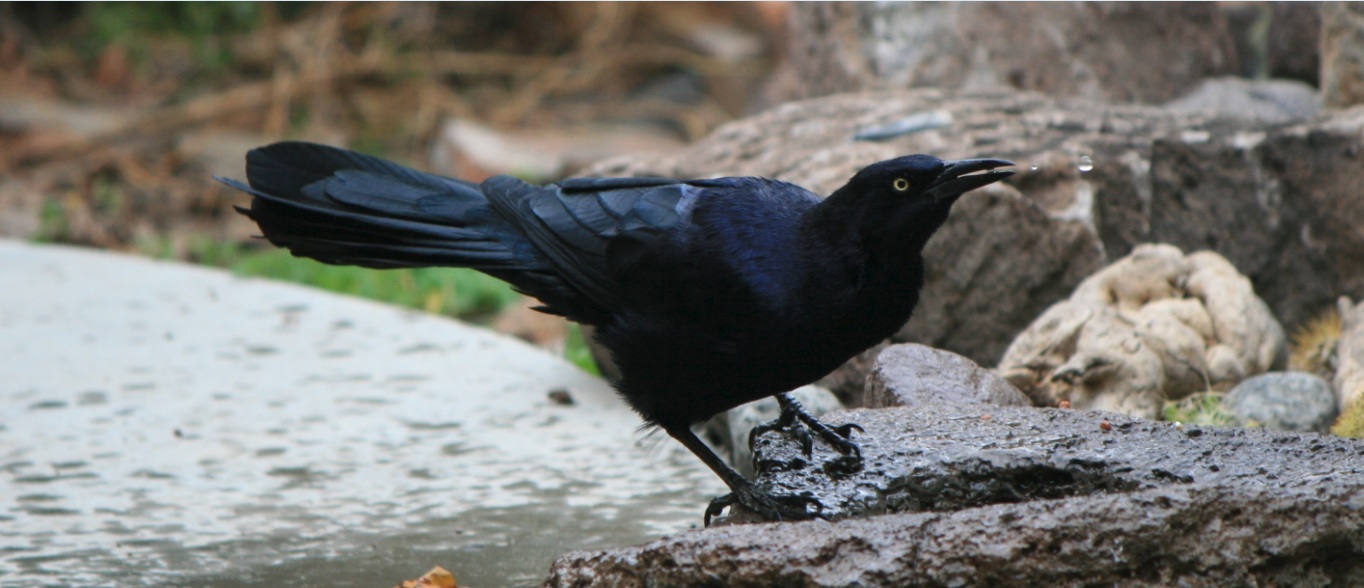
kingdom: Animalia
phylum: Chordata
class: Aves
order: Passeriformes
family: Icteridae
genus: Quiscalus
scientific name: Quiscalus mexicanus
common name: Great-tailed grackle
